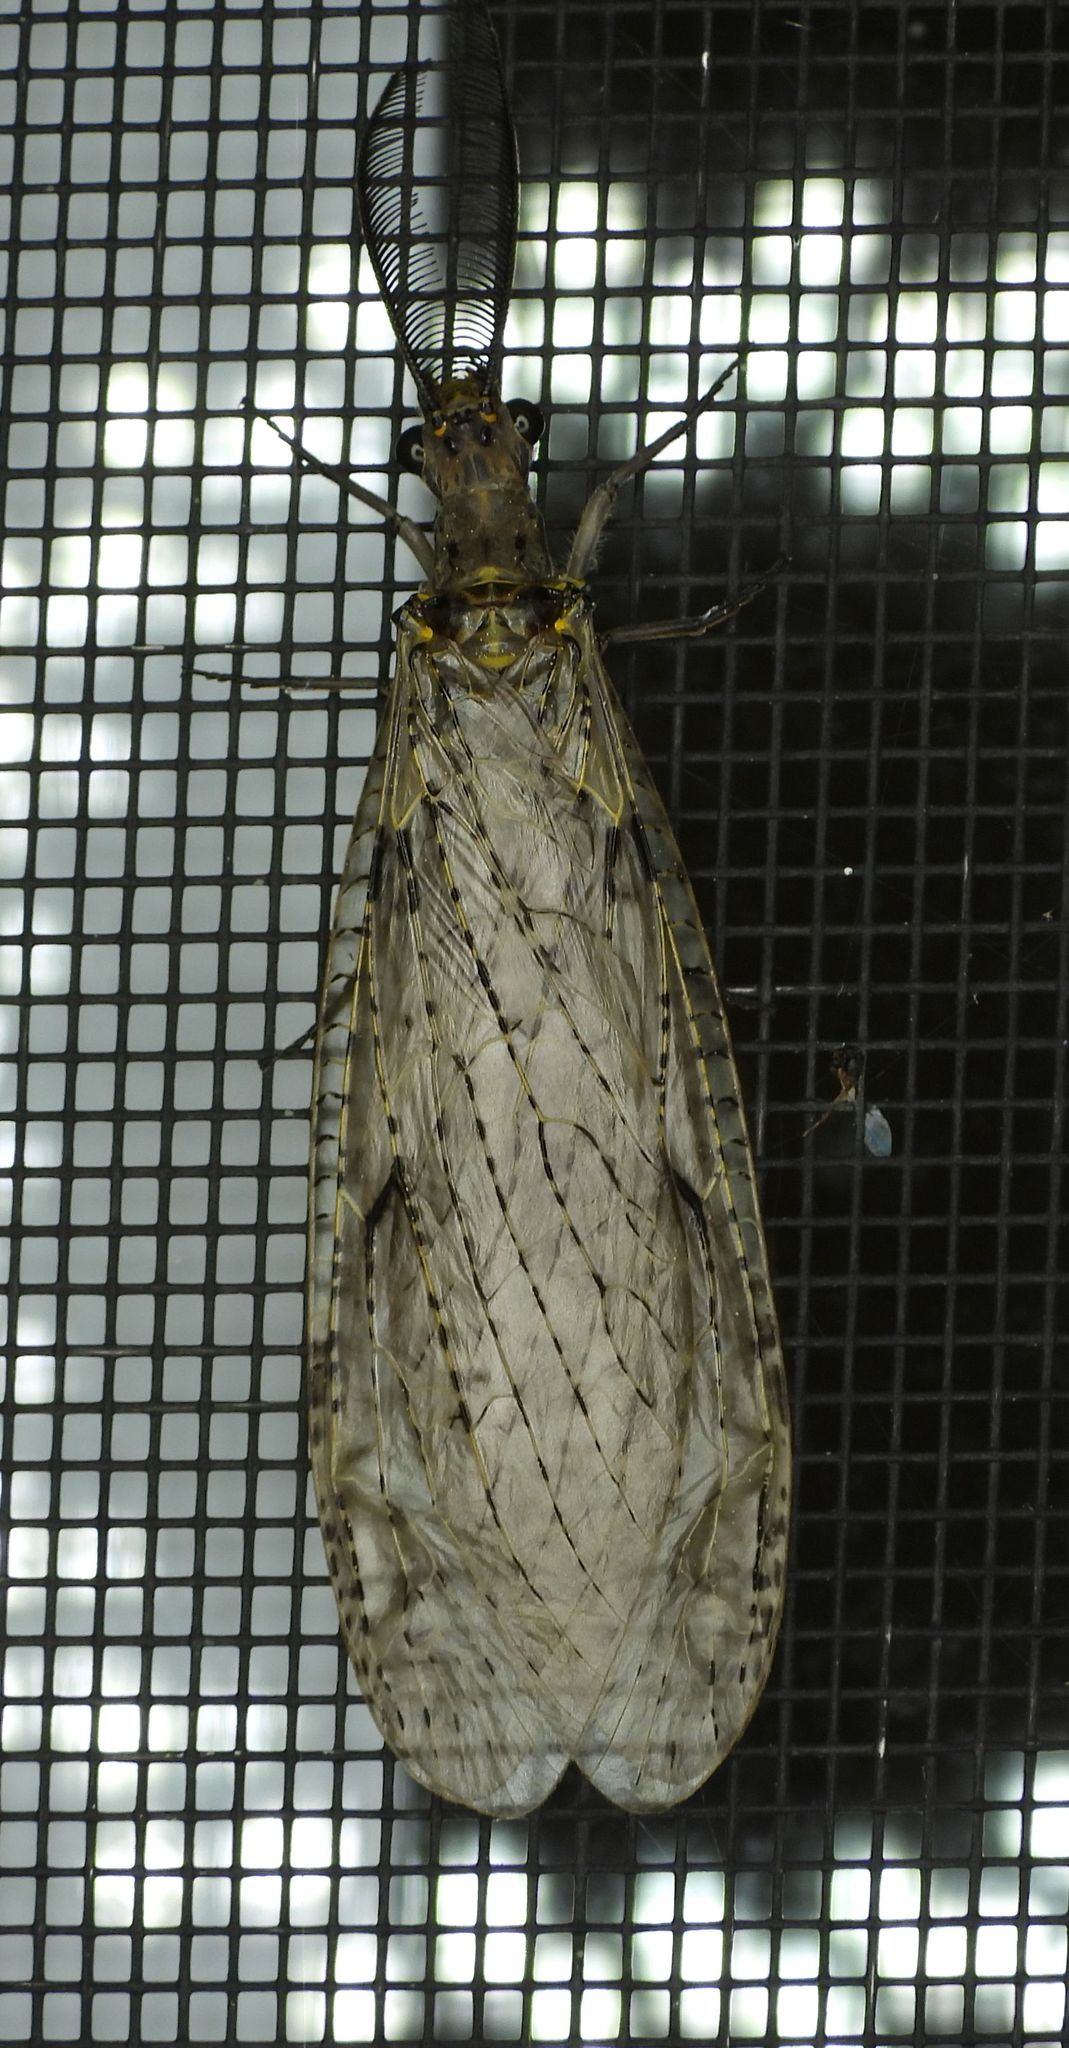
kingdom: Animalia
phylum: Arthropoda
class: Insecta
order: Megaloptera
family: Corydalidae
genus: Chauliodes
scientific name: Chauliodes rastricornis
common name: Spring fishfly
